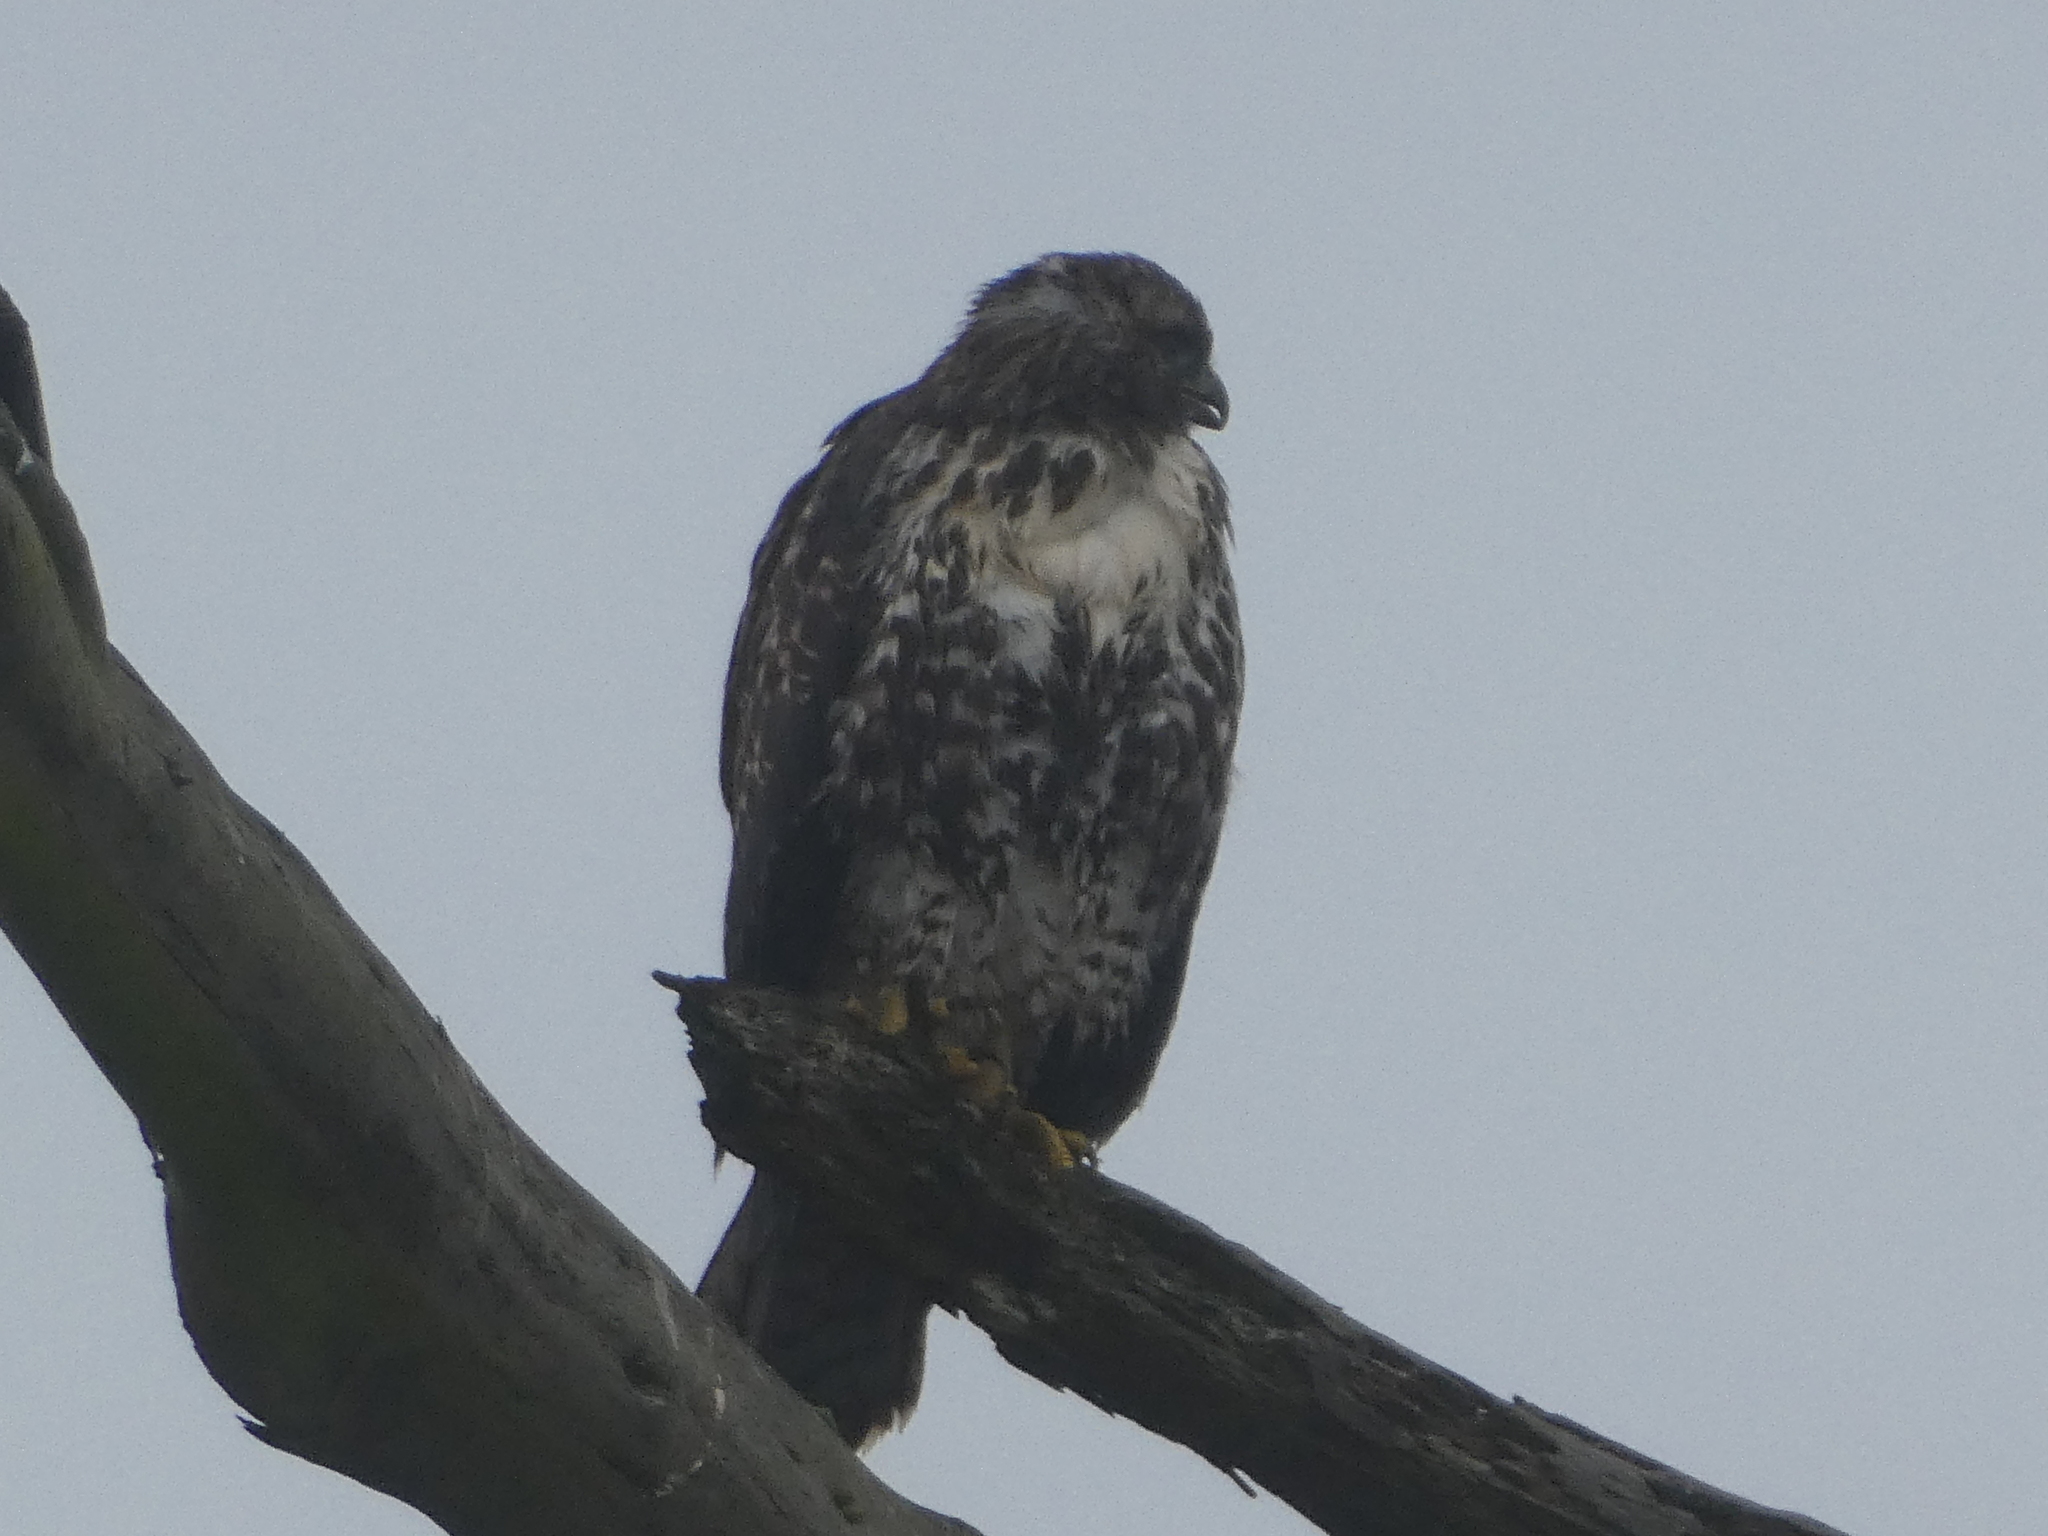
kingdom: Animalia
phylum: Chordata
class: Aves
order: Accipitriformes
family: Accipitridae
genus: Buteo
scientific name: Buteo jamaicensis
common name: Red-tailed hawk
